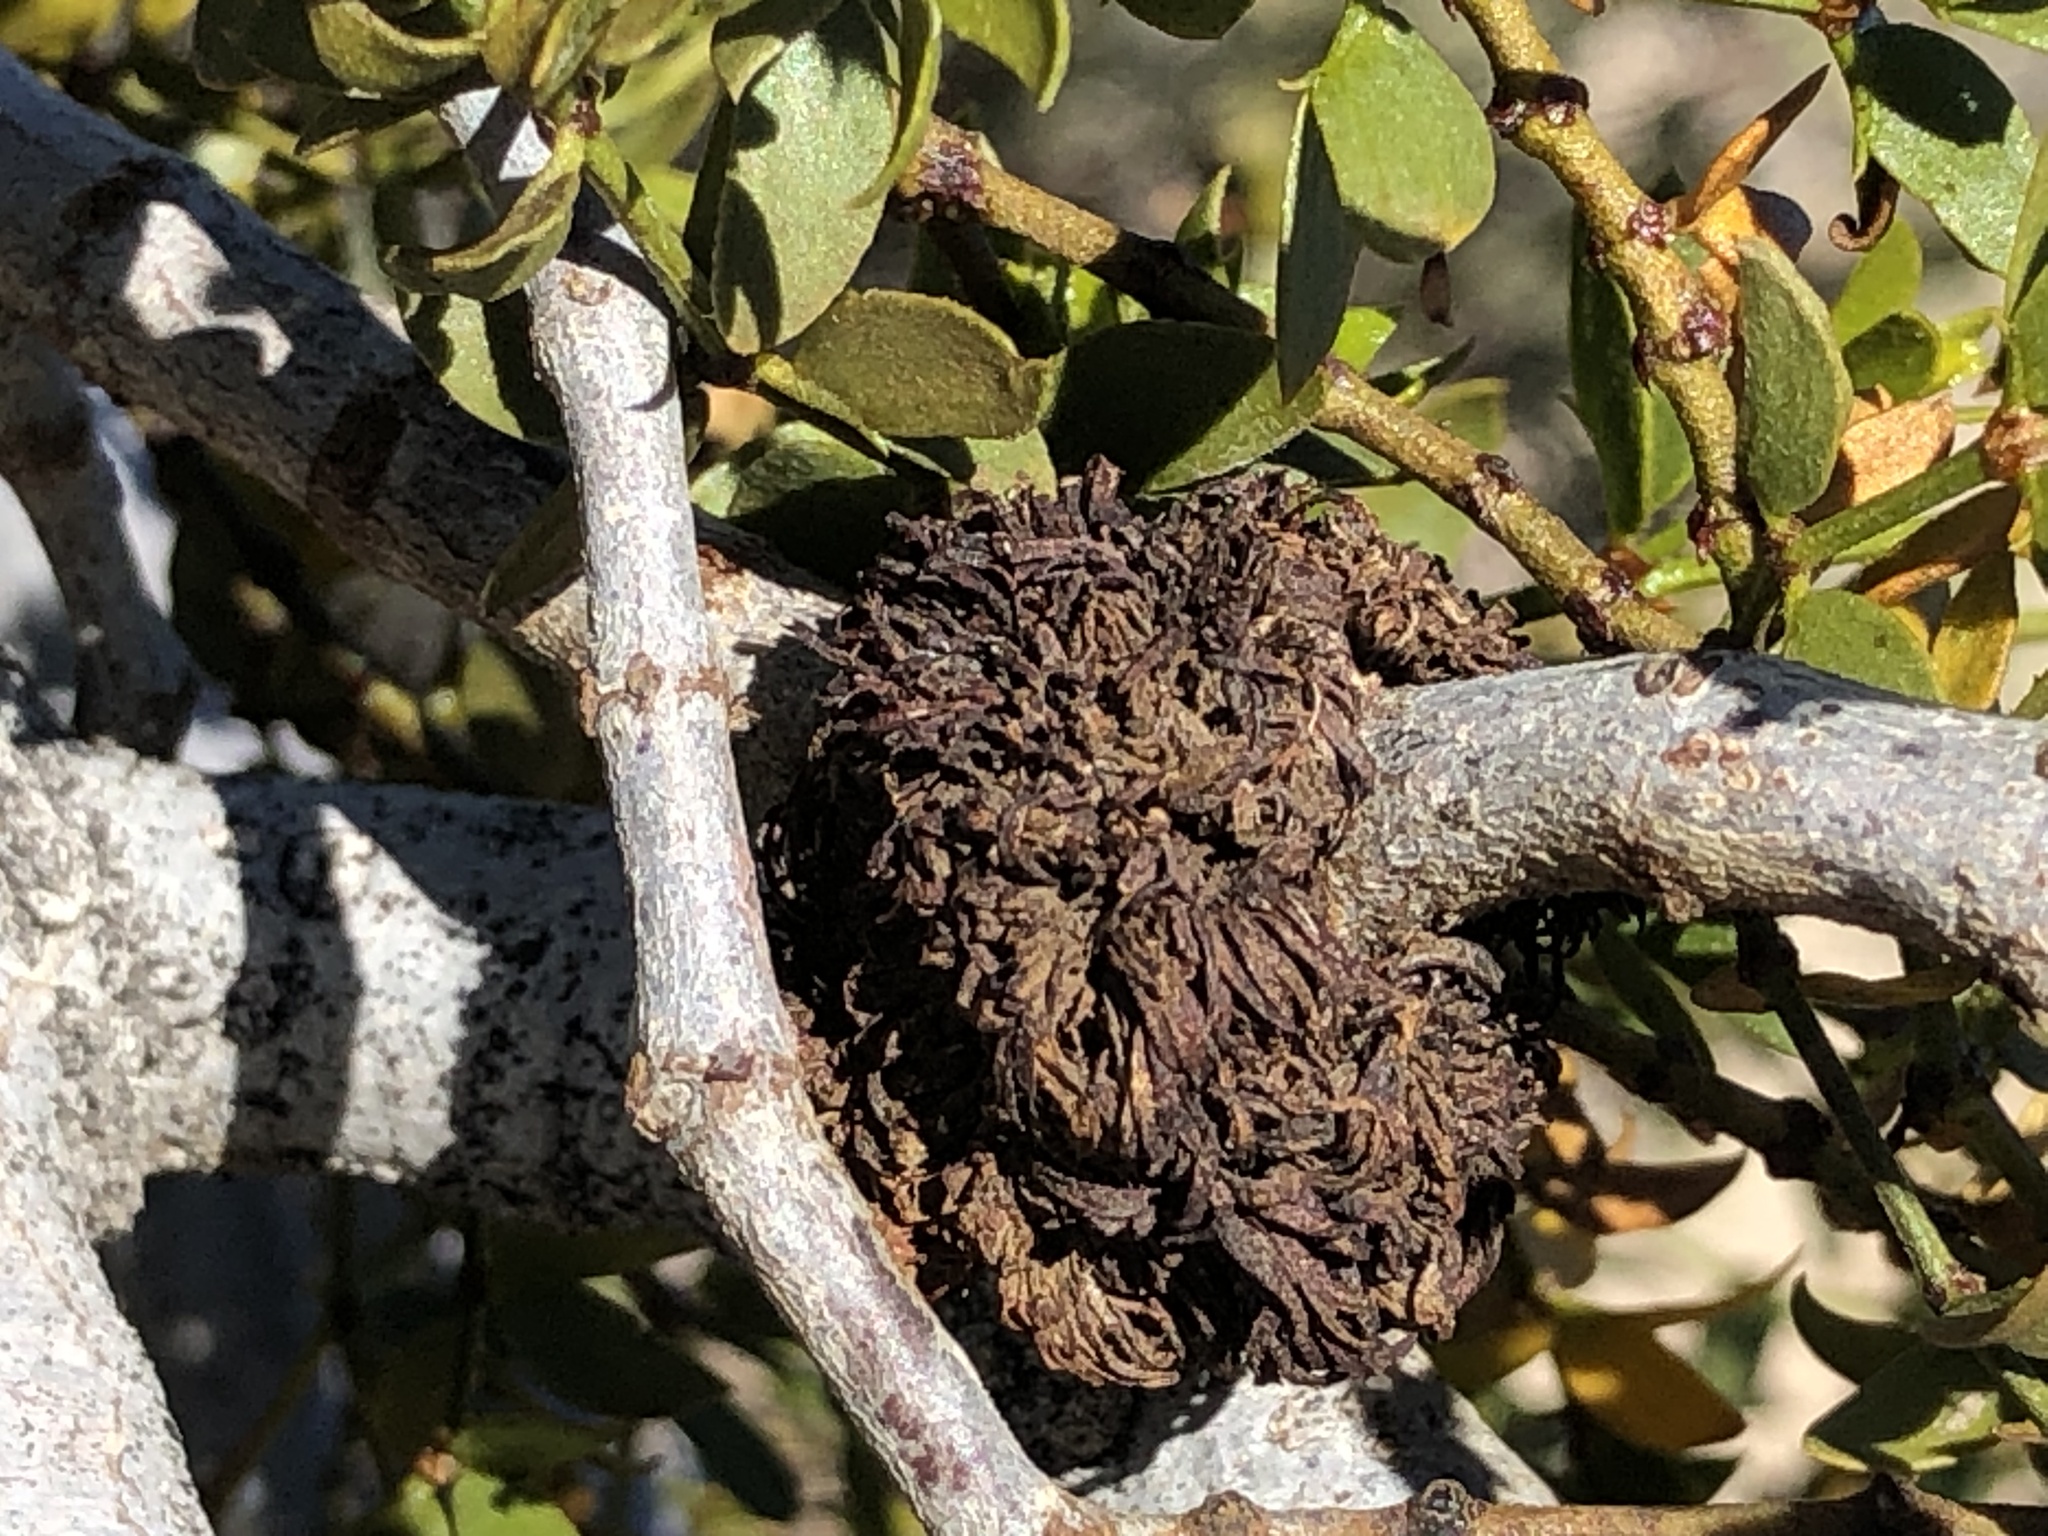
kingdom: Animalia
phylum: Arthropoda
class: Insecta
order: Diptera
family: Cecidomyiidae
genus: Asphondylia
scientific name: Asphondylia auripila
